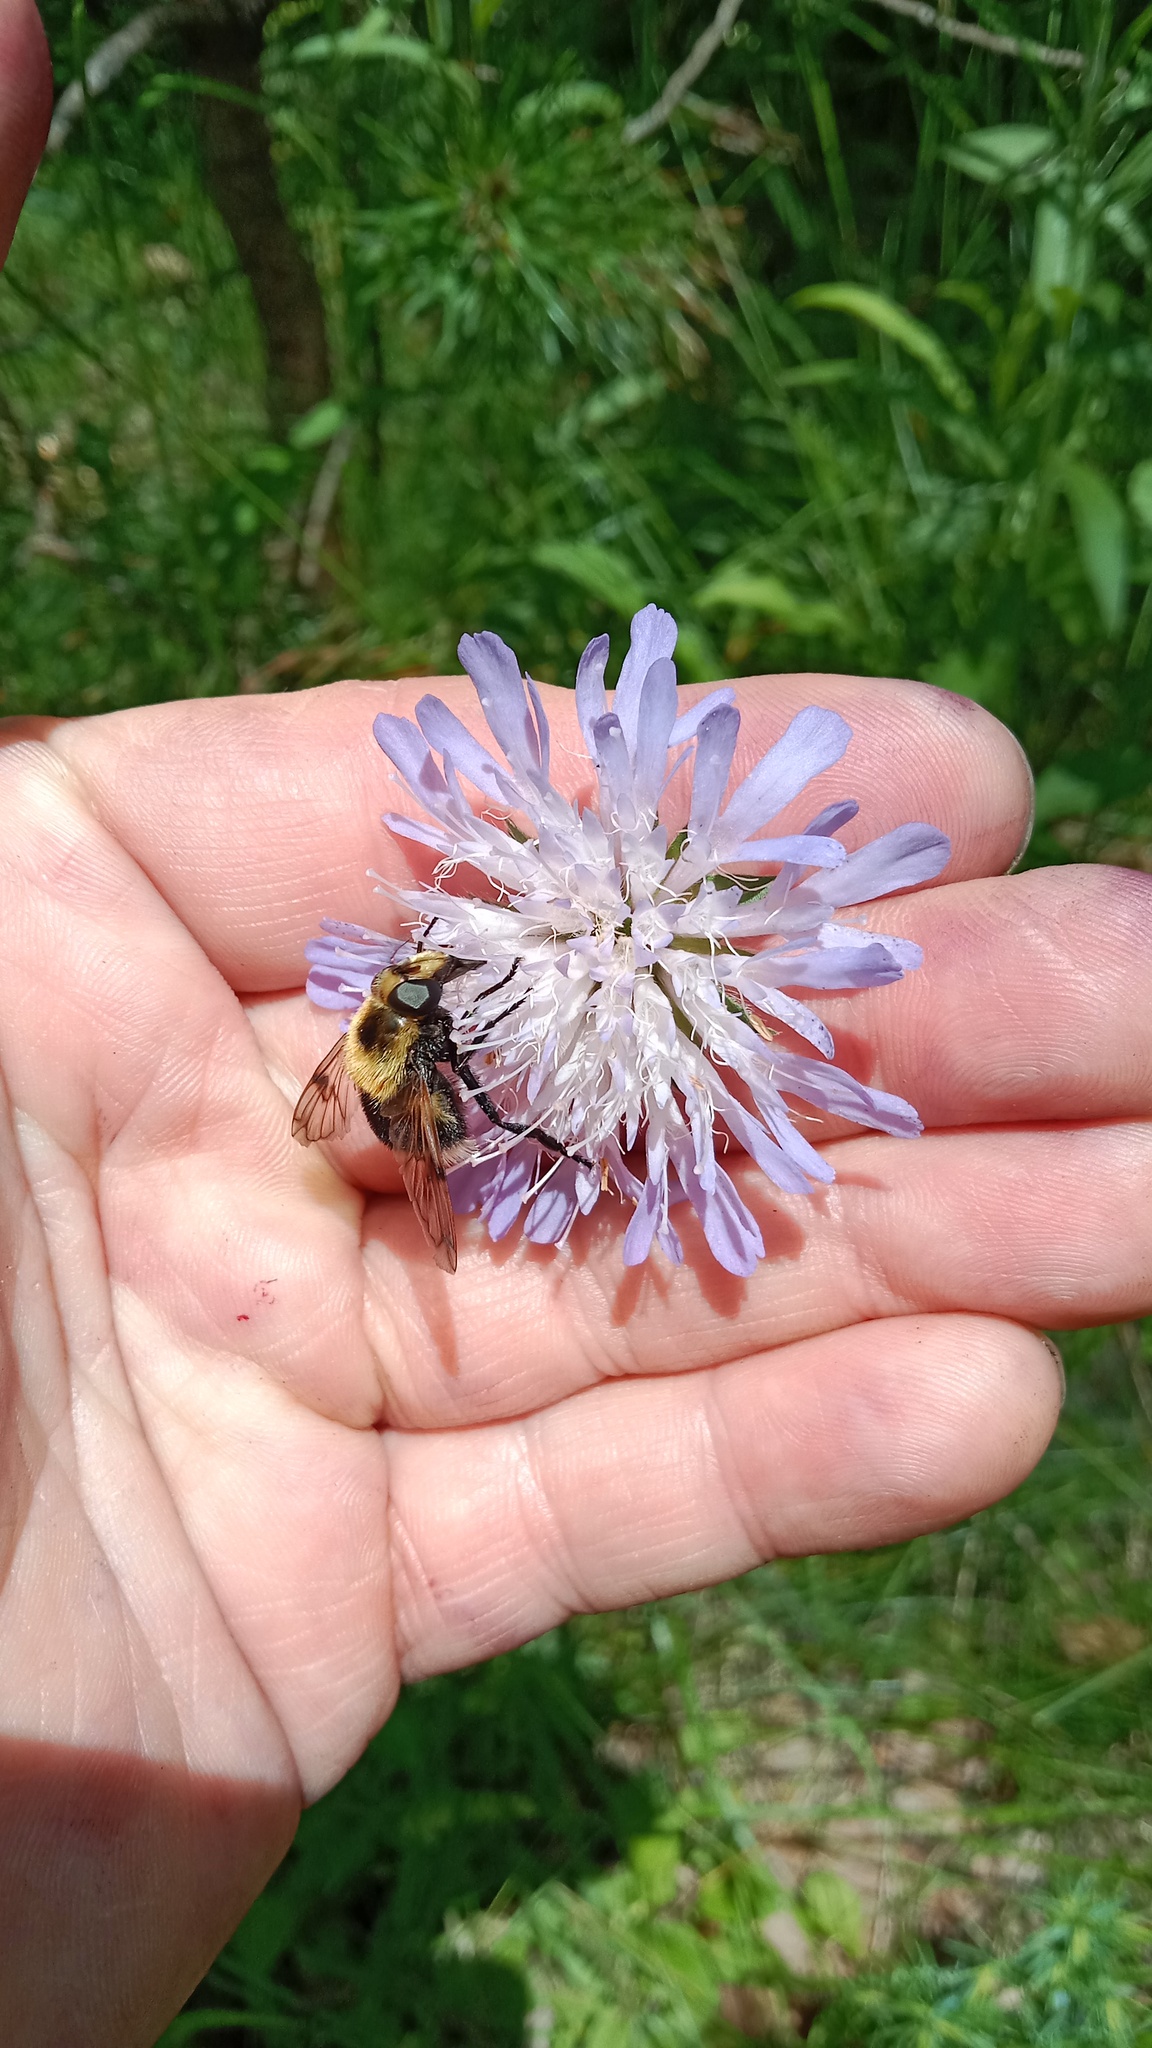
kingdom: Animalia
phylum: Arthropoda
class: Insecta
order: Diptera
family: Syrphidae
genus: Volucella
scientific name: Volucella bombylans
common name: Bumble bee hover fly
